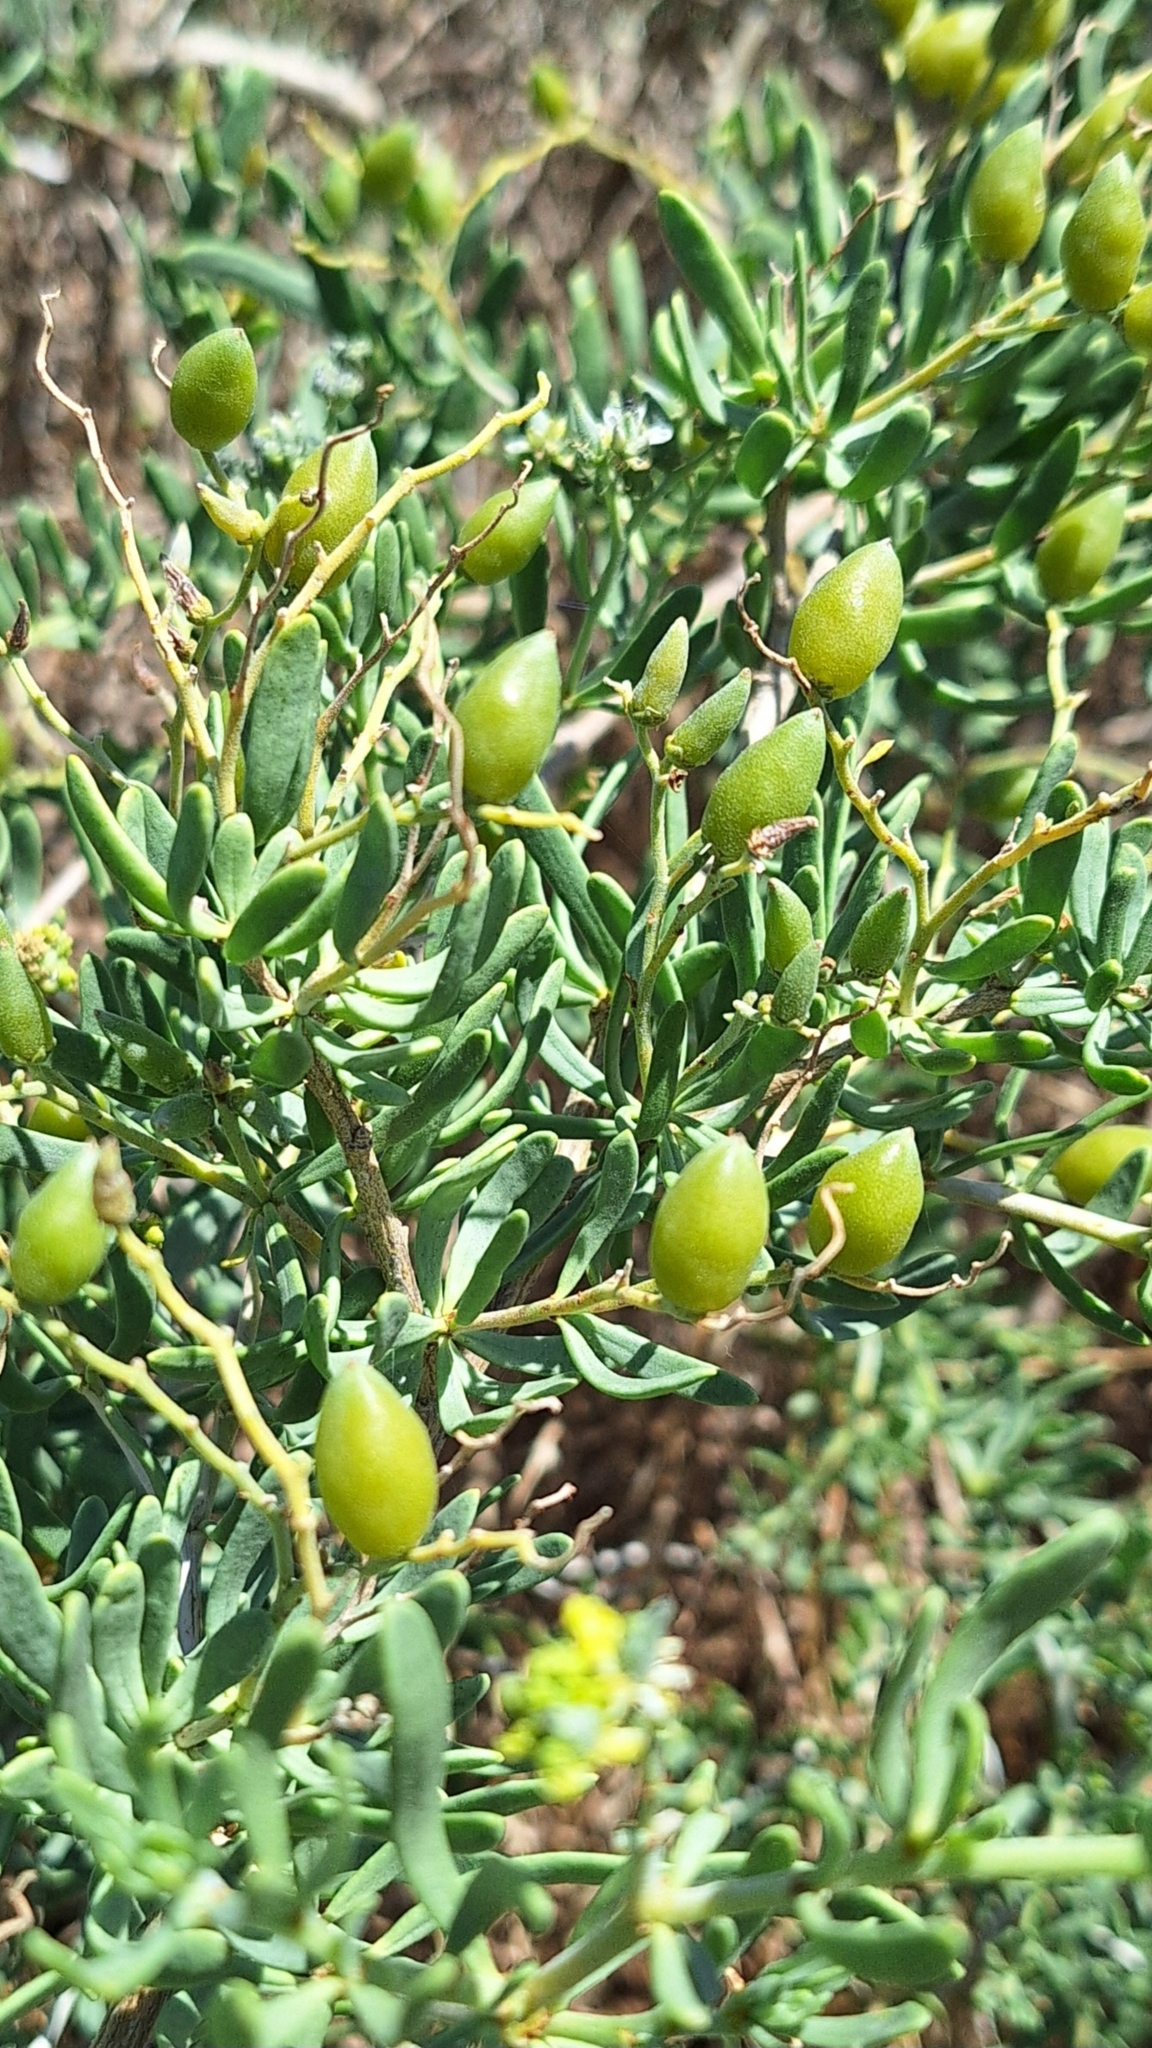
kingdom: Plantae
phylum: Tracheophyta
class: Magnoliopsida
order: Sapindales
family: Nitrariaceae
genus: Nitraria
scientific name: Nitraria billardierei
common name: Dillonbush
